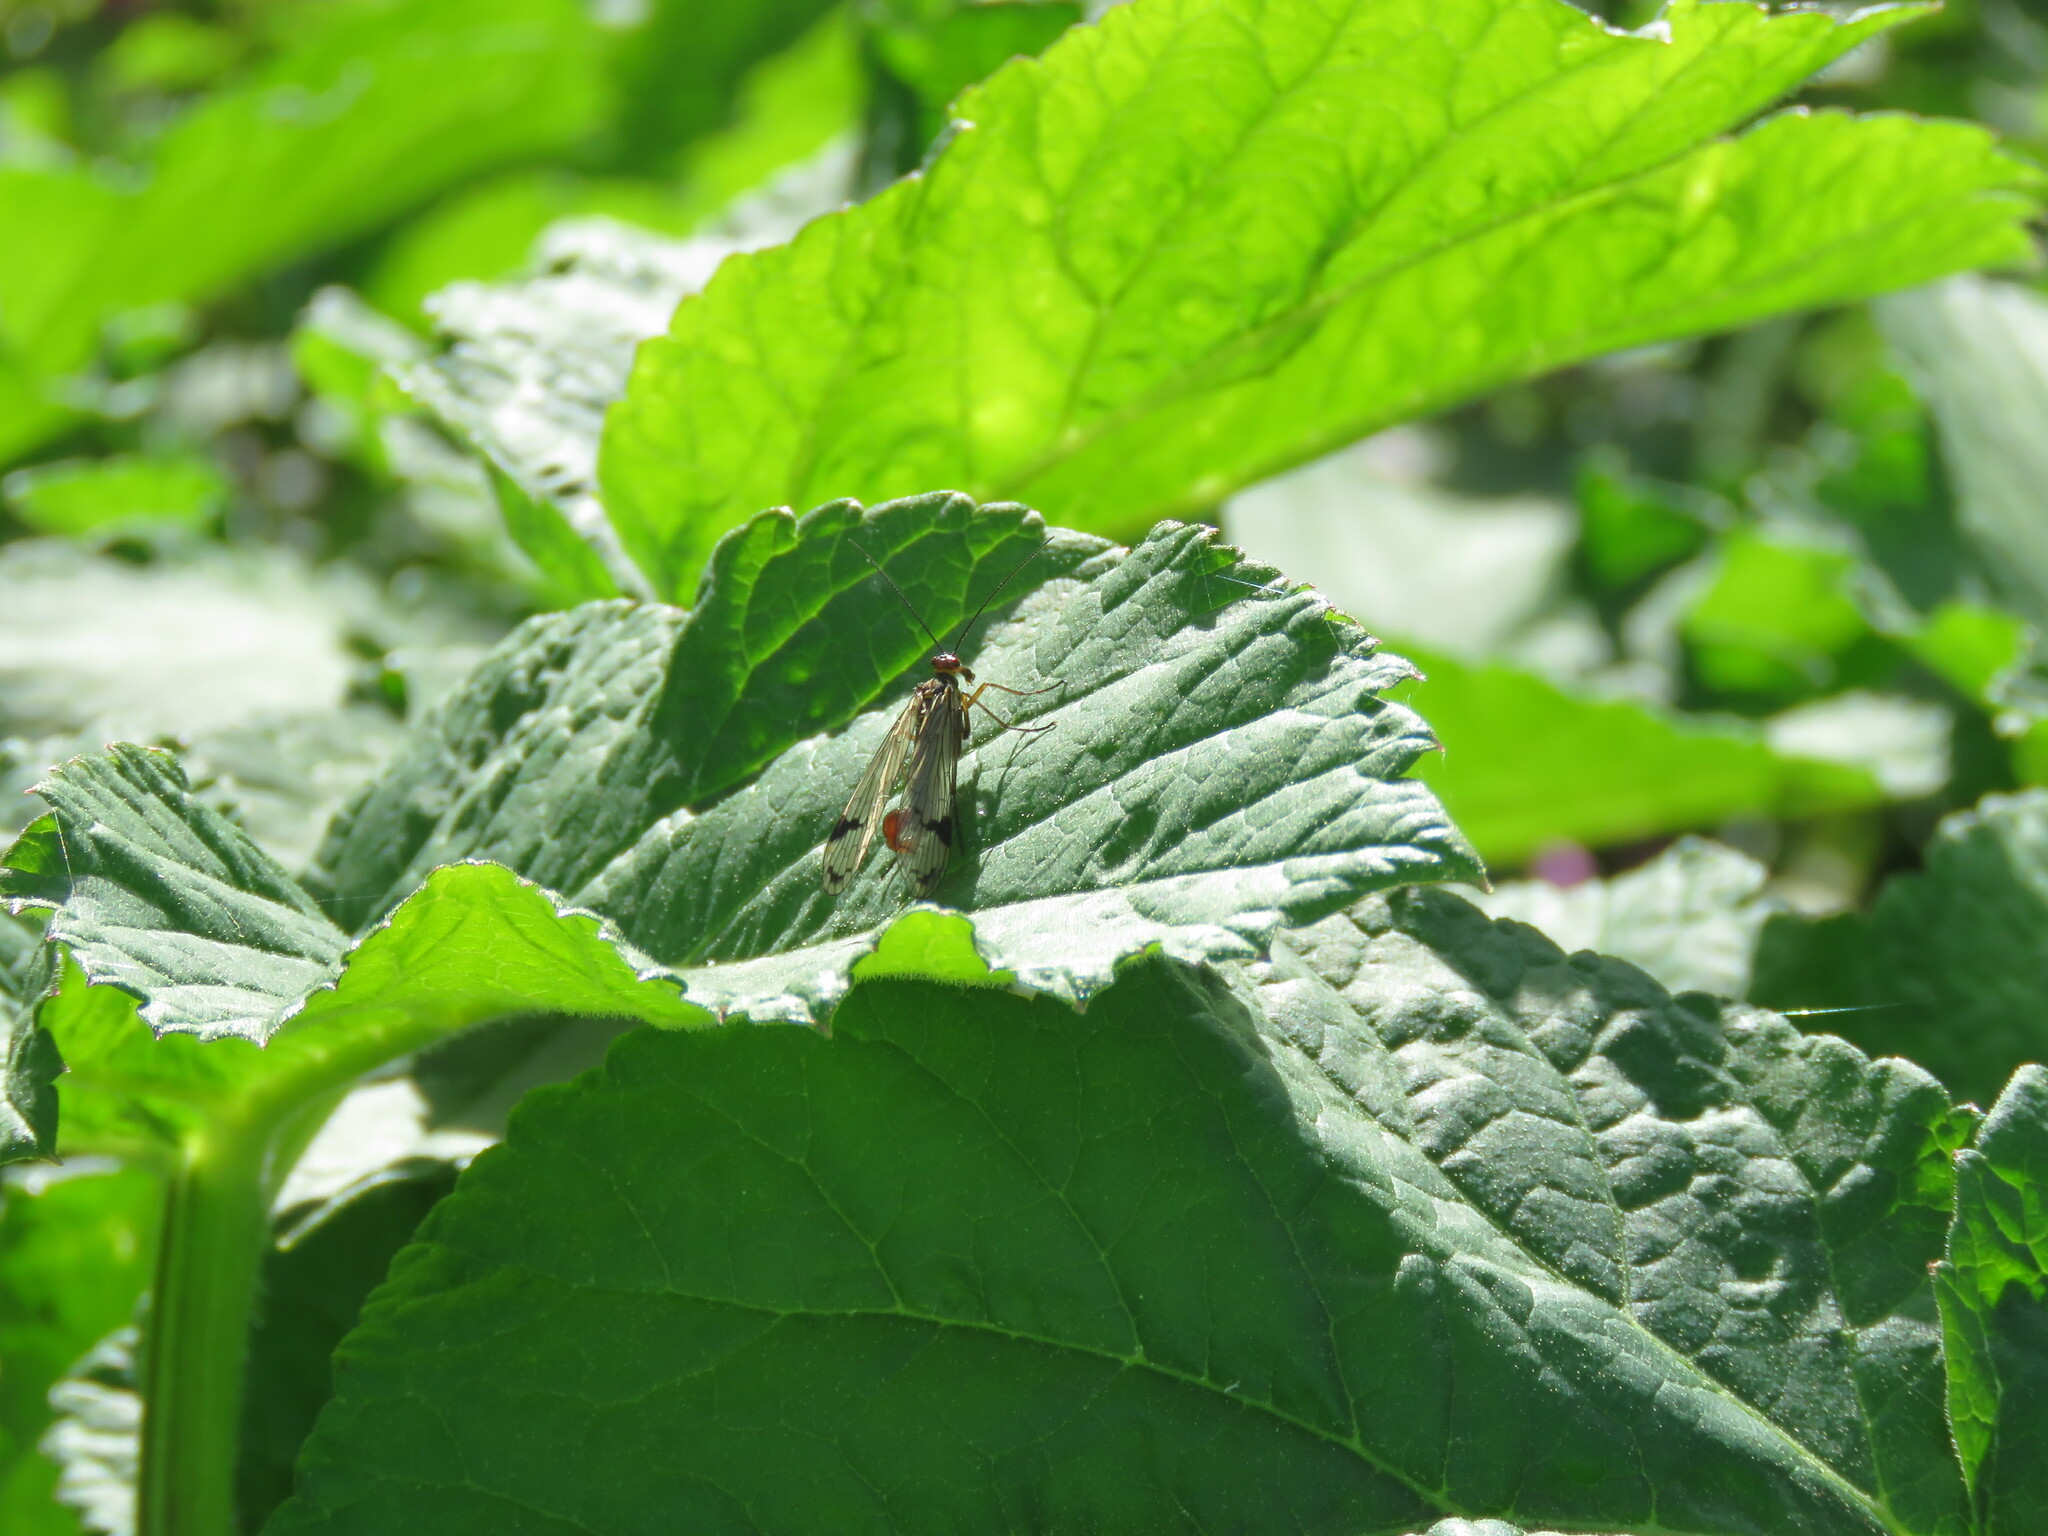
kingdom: Animalia
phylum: Arthropoda
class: Insecta
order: Mecoptera
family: Panorpidae
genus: Panorpa
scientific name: Panorpa meridionalis
